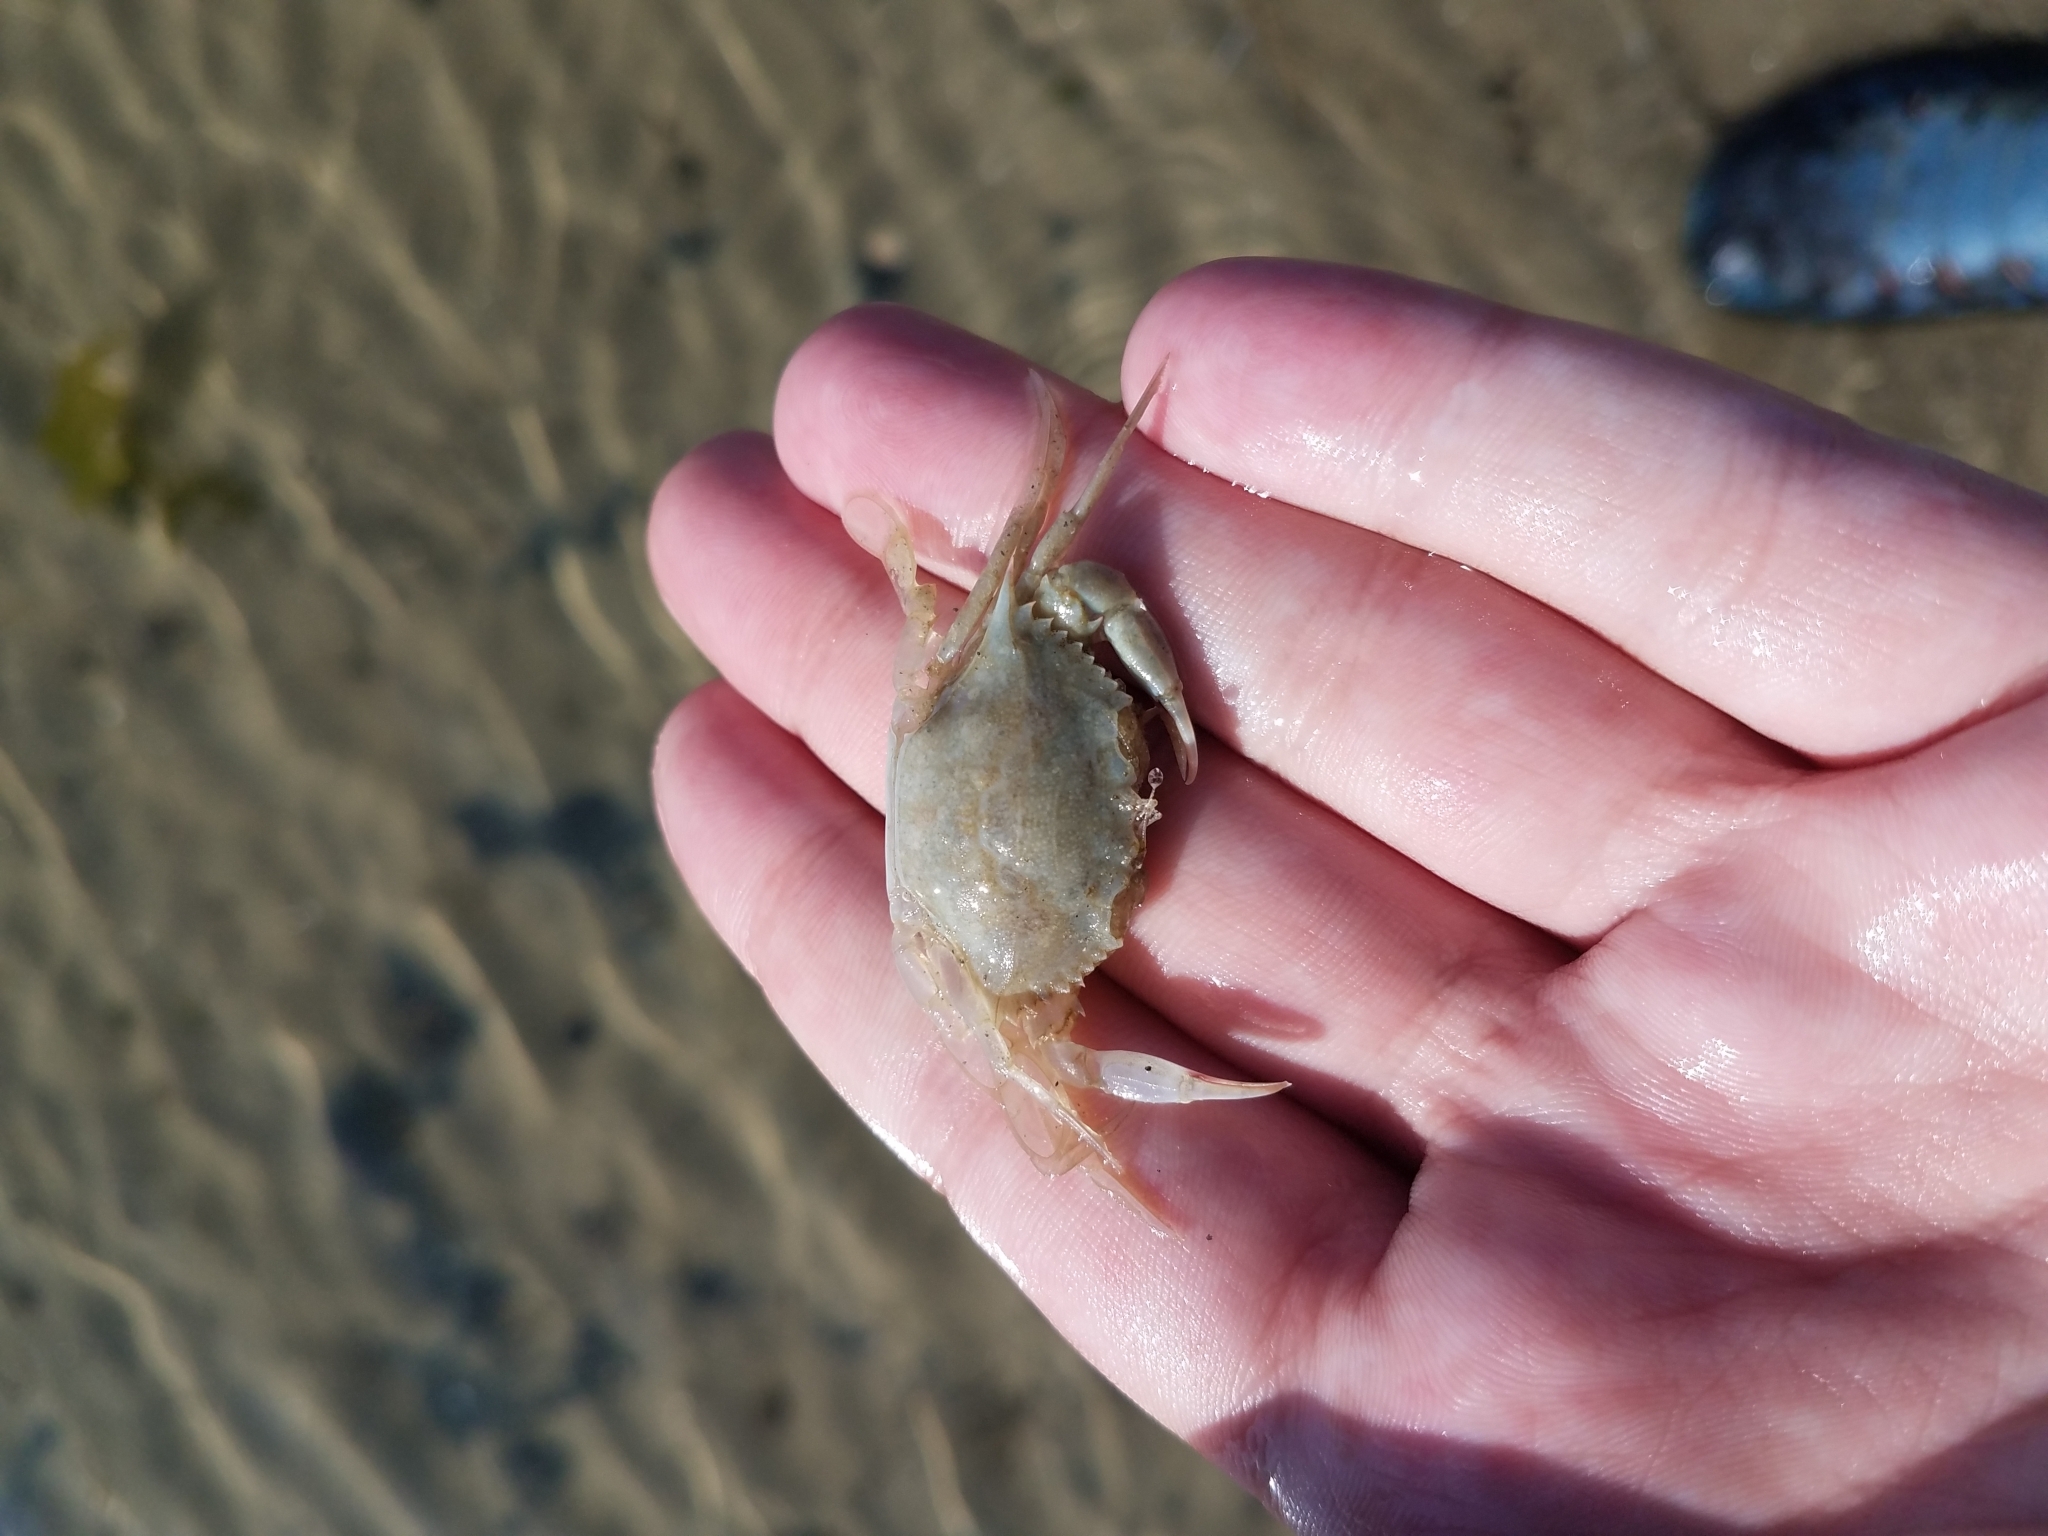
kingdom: Animalia
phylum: Arthropoda
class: Malacostraca
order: Decapoda
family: Portunidae
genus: Callinectes
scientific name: Callinectes sapidus
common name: Blue crab
